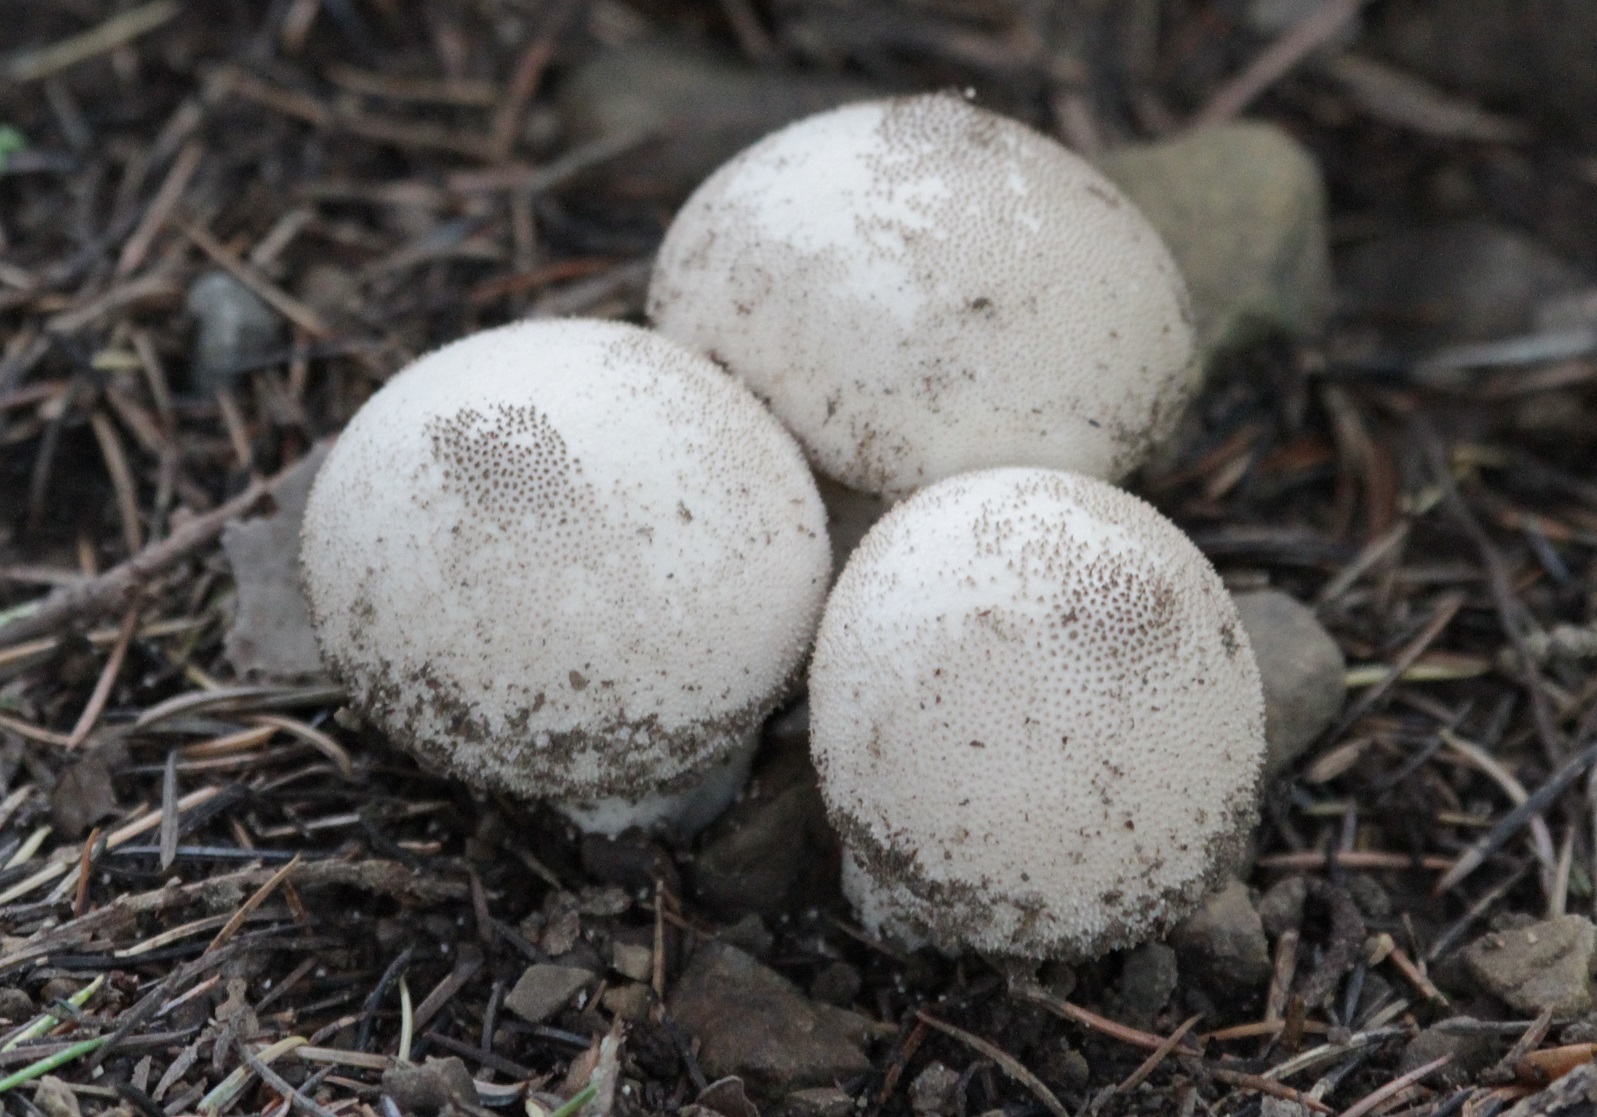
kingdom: Fungi
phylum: Basidiomycota
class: Agaricomycetes
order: Agaricales
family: Lycoperdaceae
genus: Lycoperdon
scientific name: Lycoperdon perlatum
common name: Common puffball
